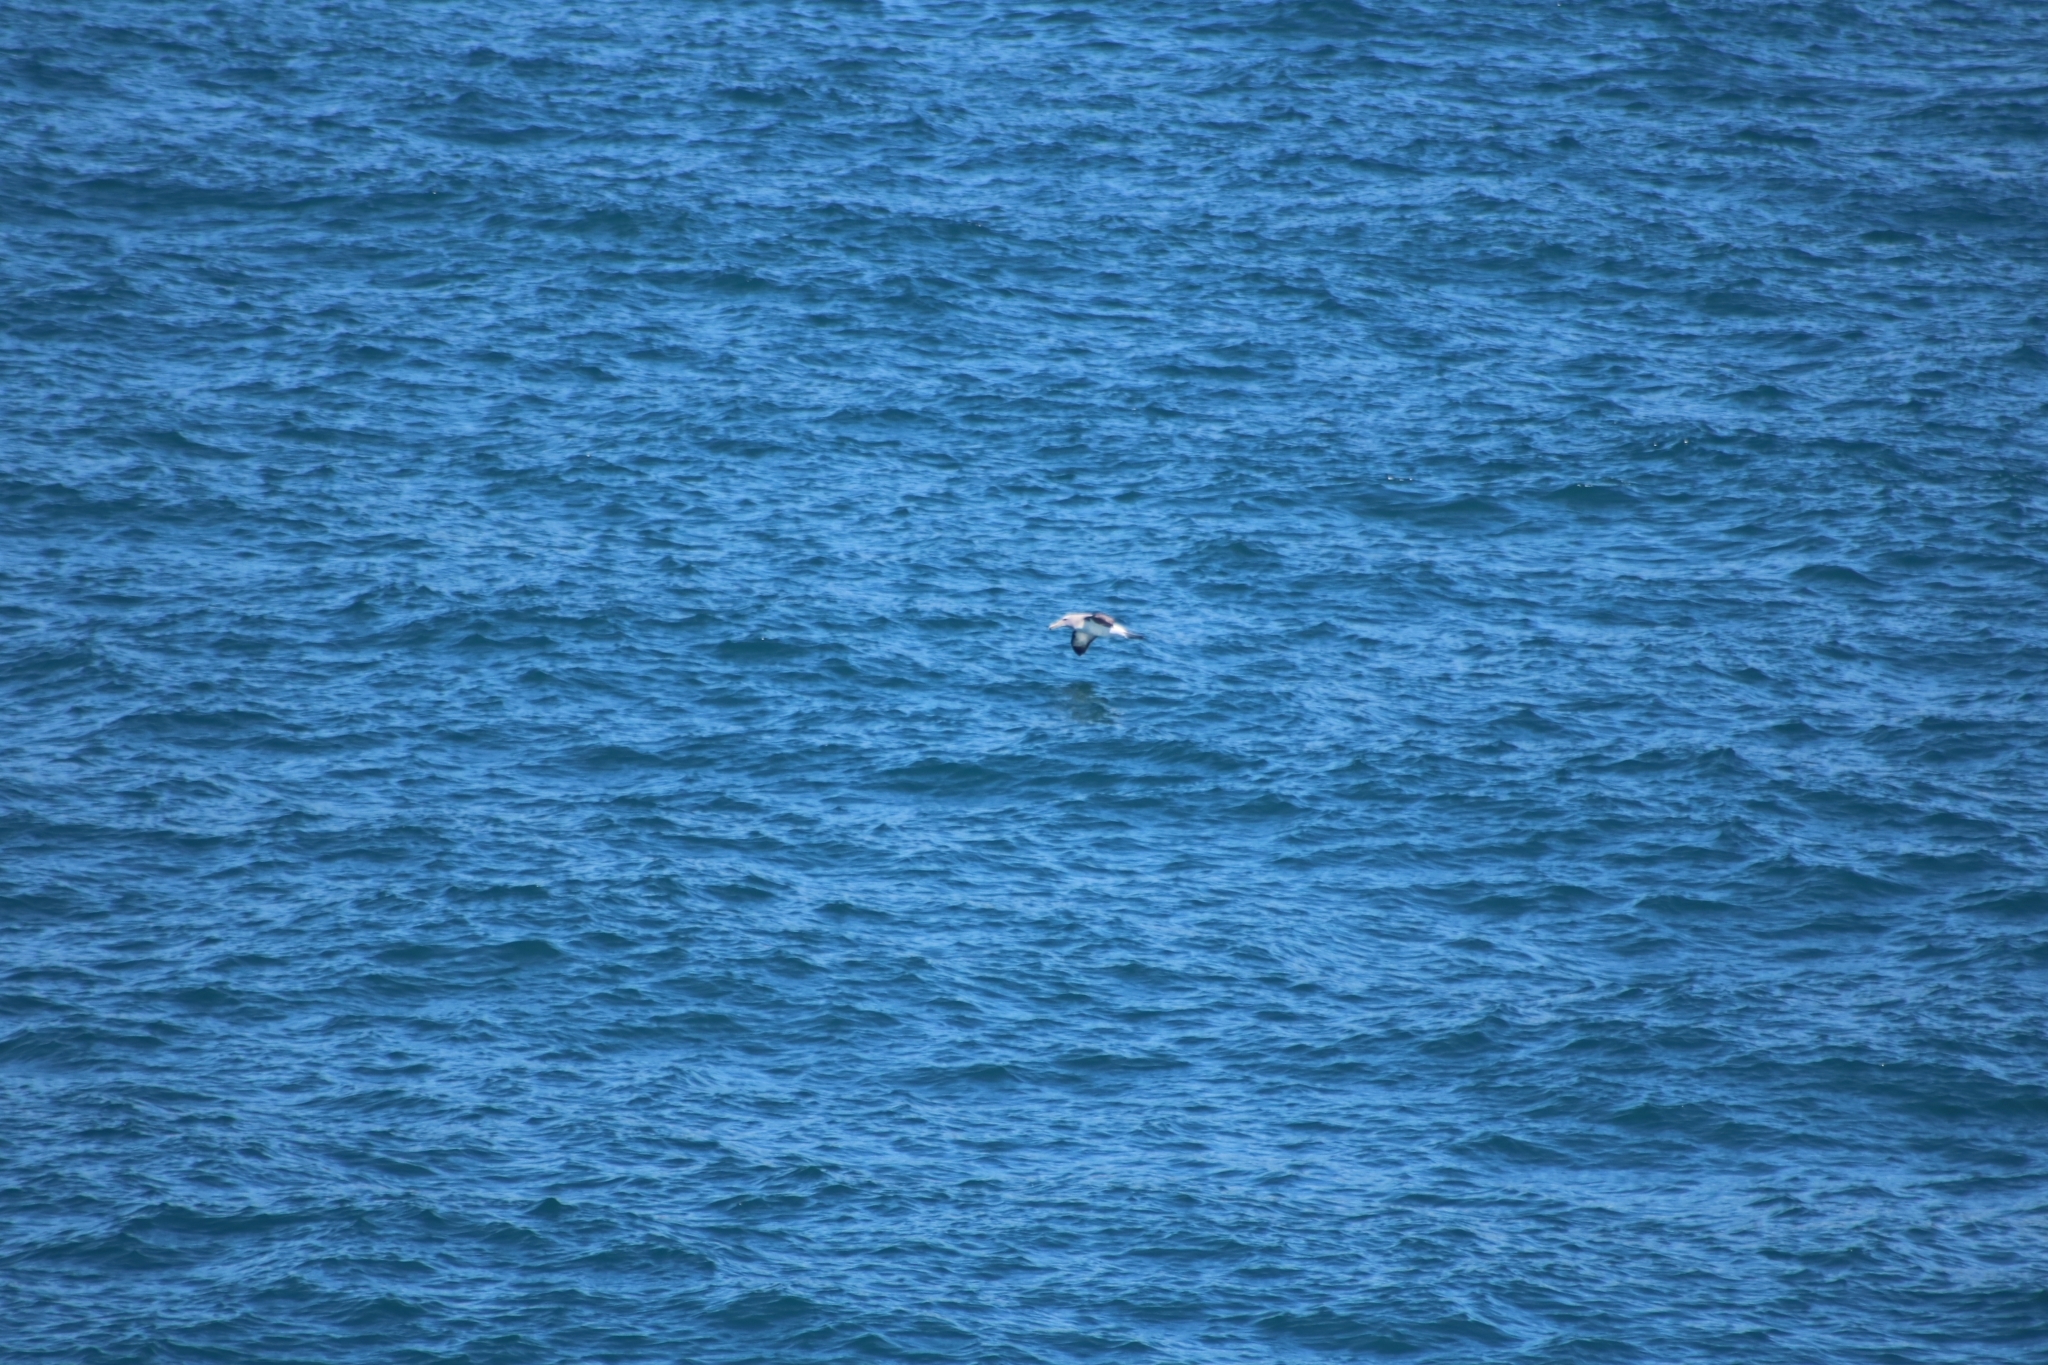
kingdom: Animalia
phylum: Chordata
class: Aves
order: Procellariiformes
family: Diomedeidae
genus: Thalassarche
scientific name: Thalassarche salvini
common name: Salvin's albatross
